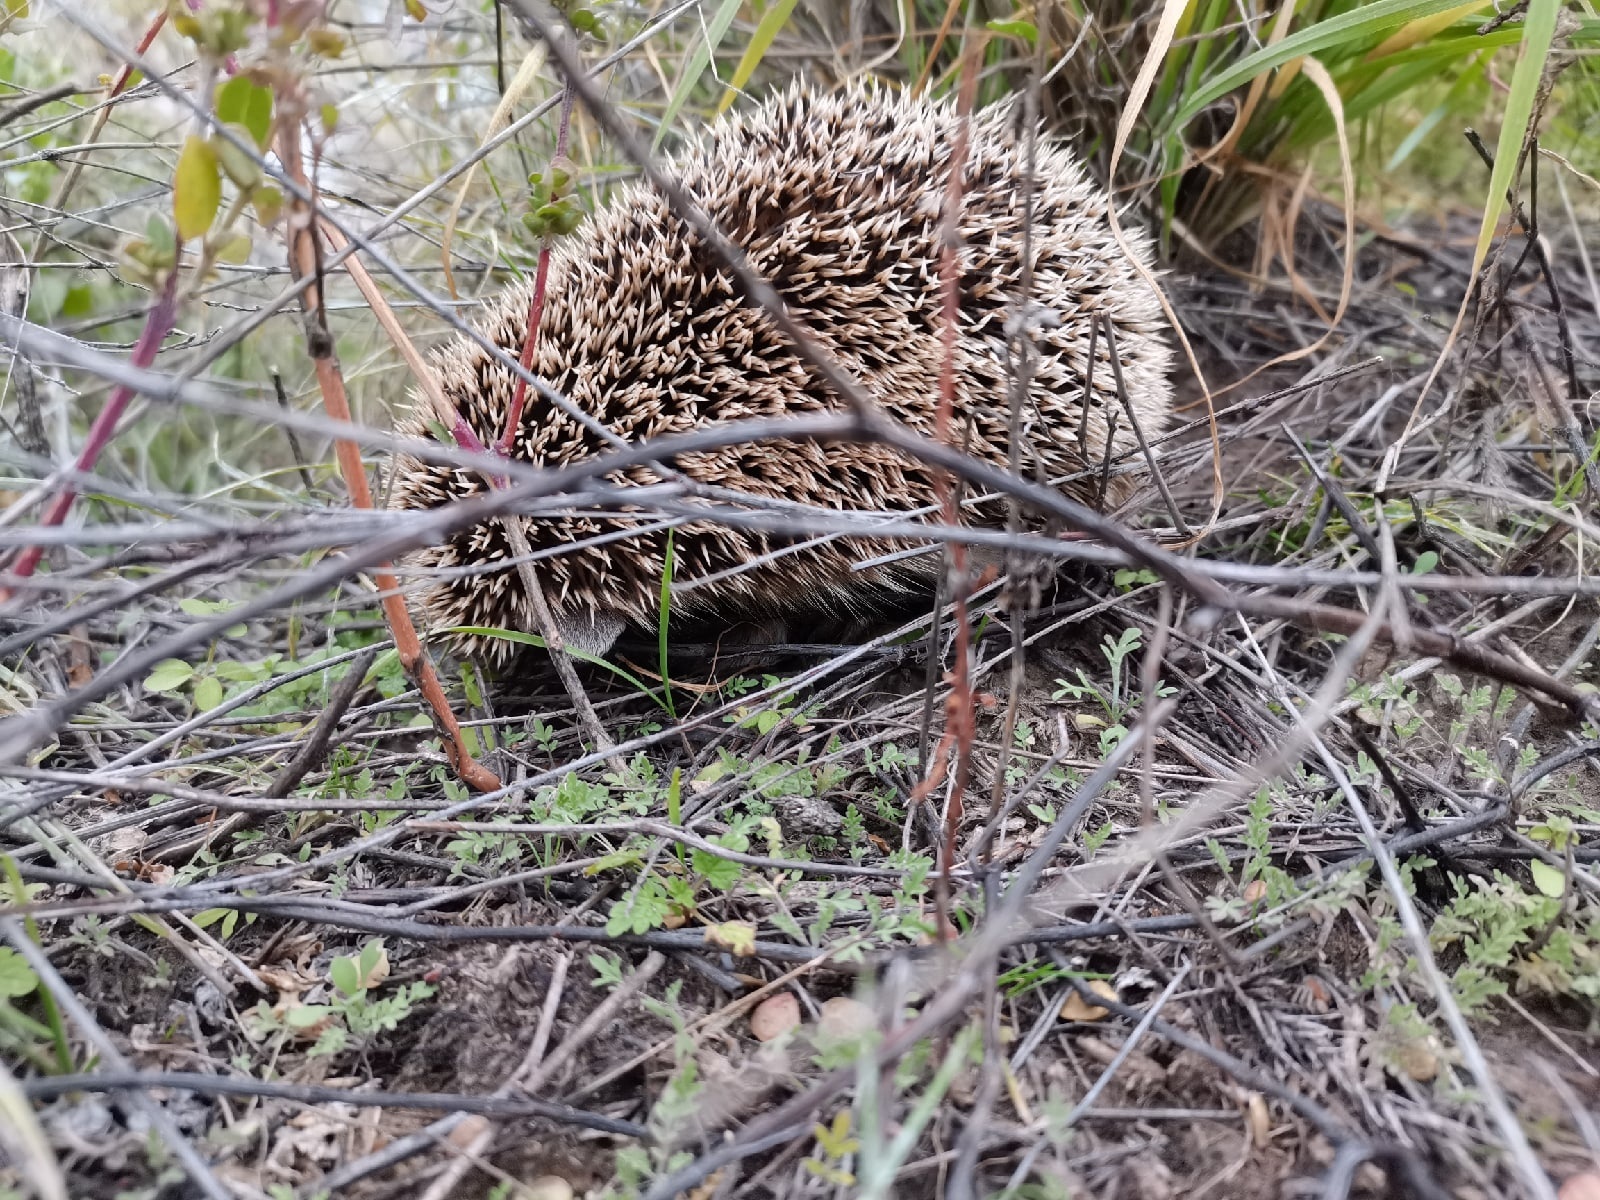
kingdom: Animalia
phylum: Chordata
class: Mammalia
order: Erinaceomorpha
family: Erinaceidae
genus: Hemiechinus
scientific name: Hemiechinus auritus
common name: Long-eared hedgehog
